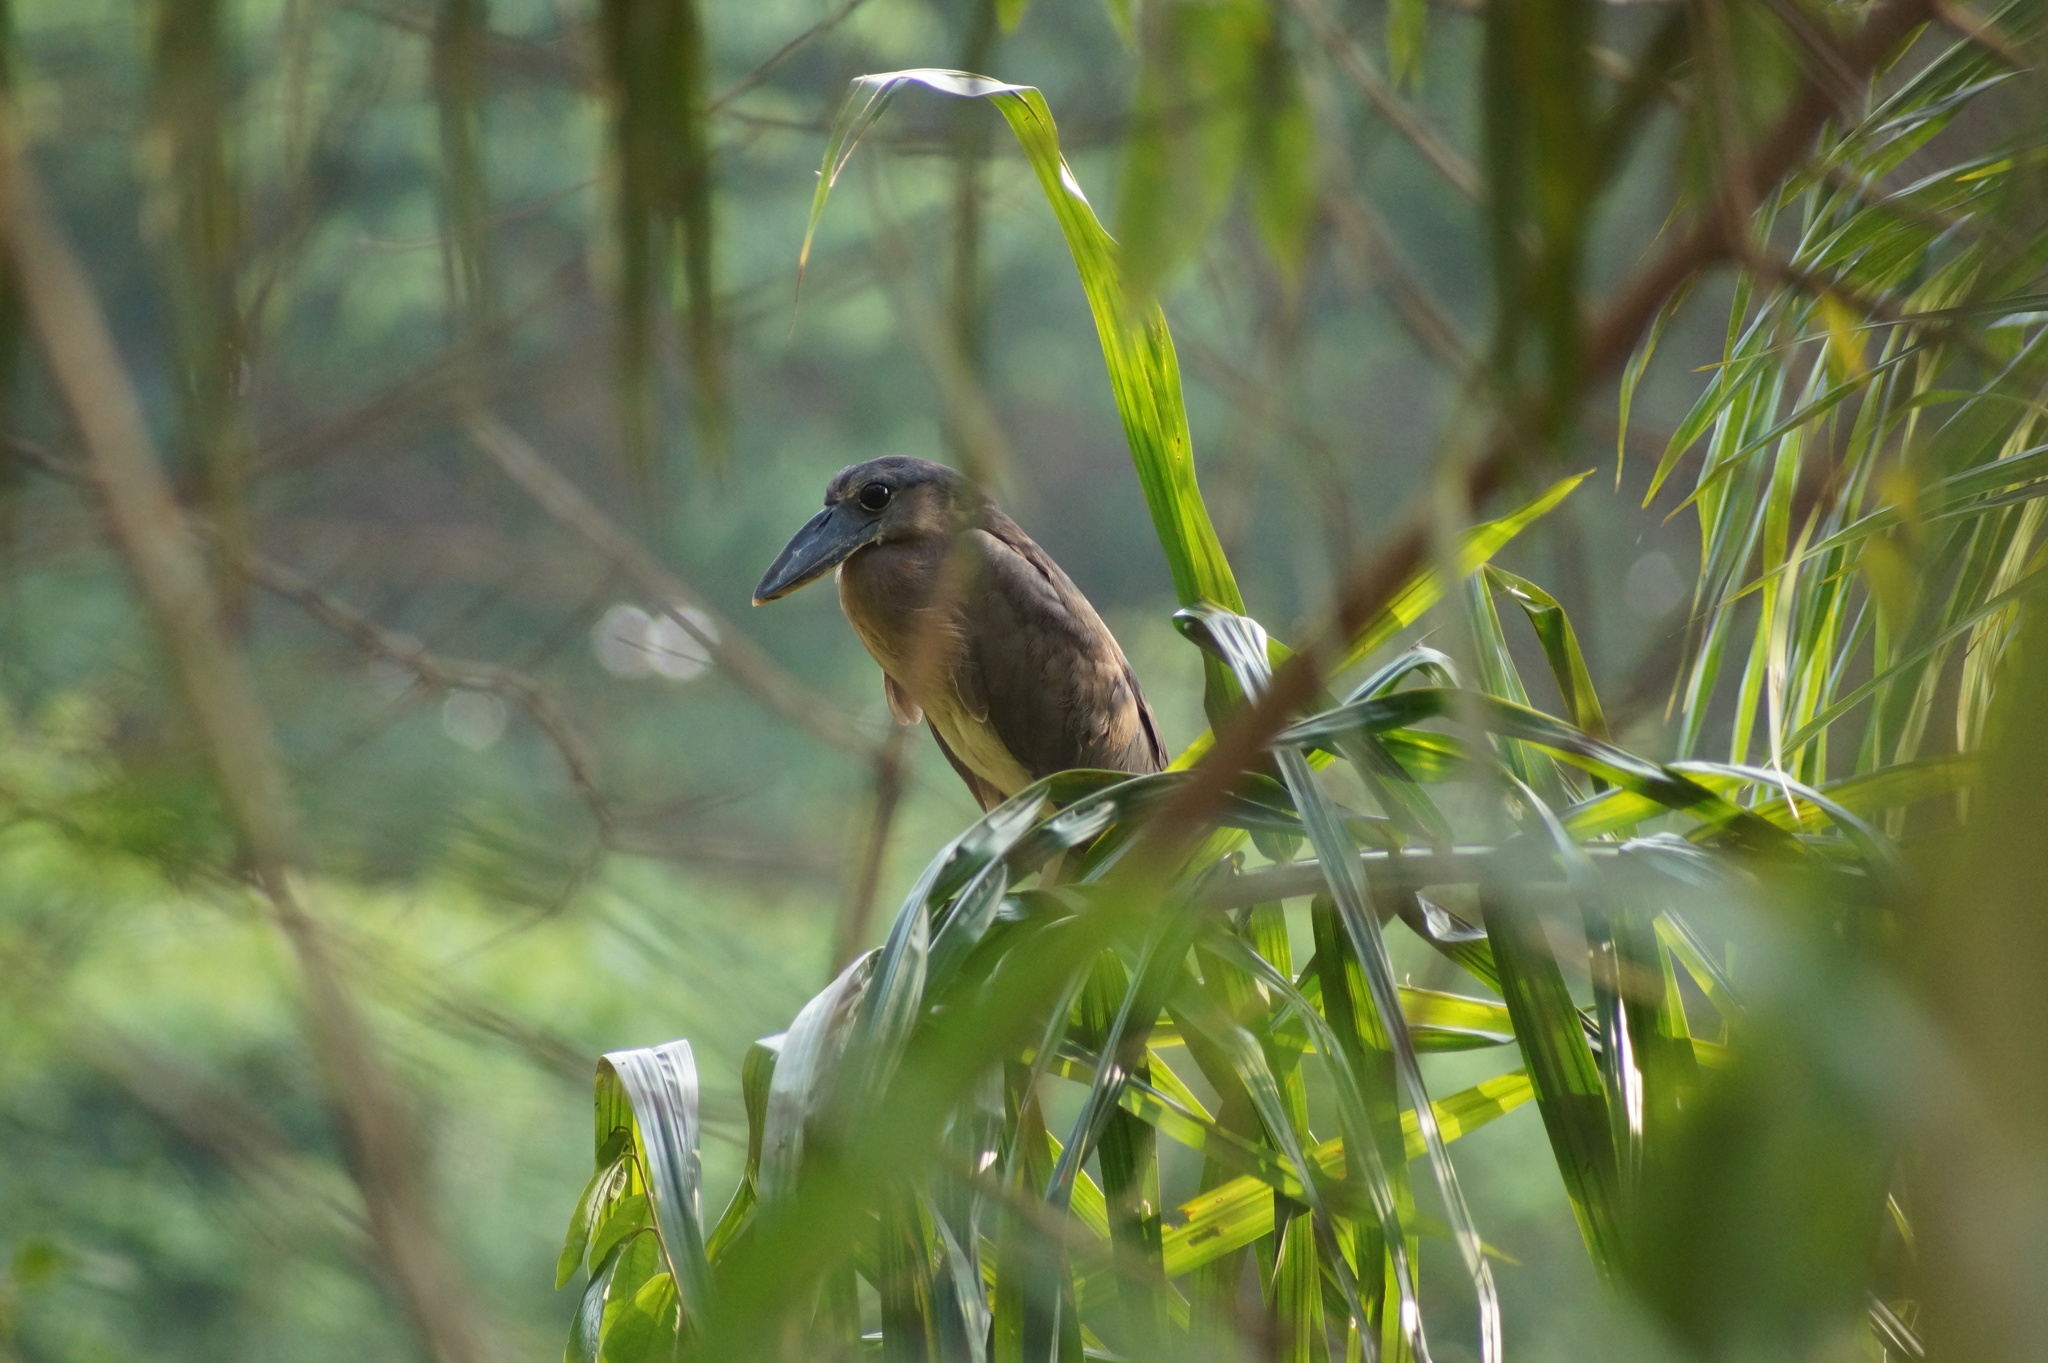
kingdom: Animalia
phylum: Chordata
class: Aves
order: Pelecaniformes
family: Ardeidae
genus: Cochlearius
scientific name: Cochlearius cochlearius
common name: Boat-billed heron
